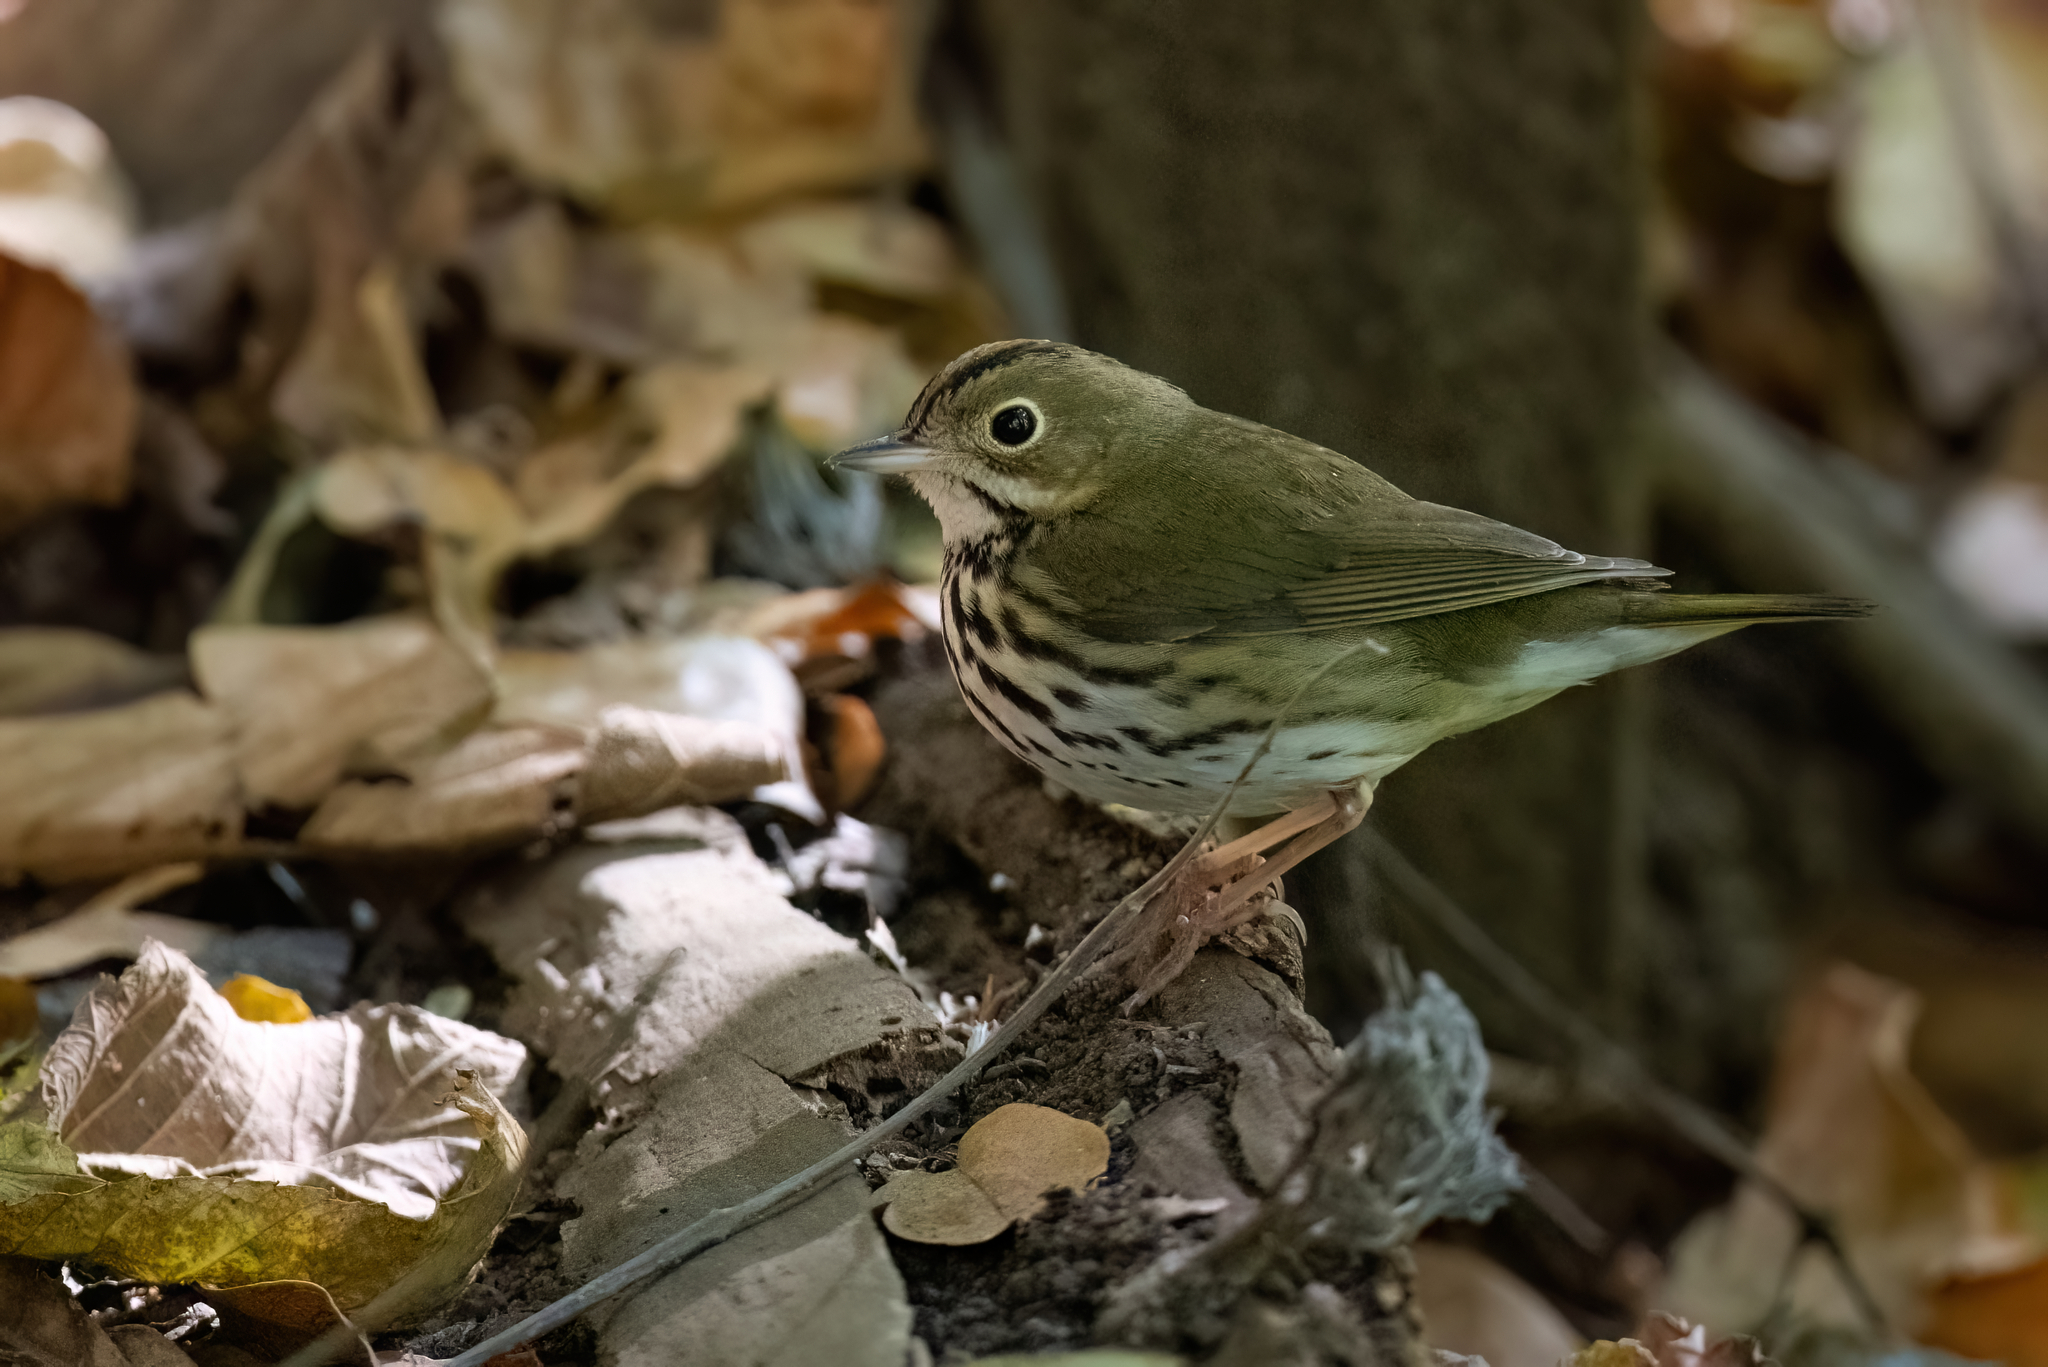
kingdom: Animalia
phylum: Chordata
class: Aves
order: Passeriformes
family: Parulidae
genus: Seiurus
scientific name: Seiurus aurocapilla
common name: Ovenbird
